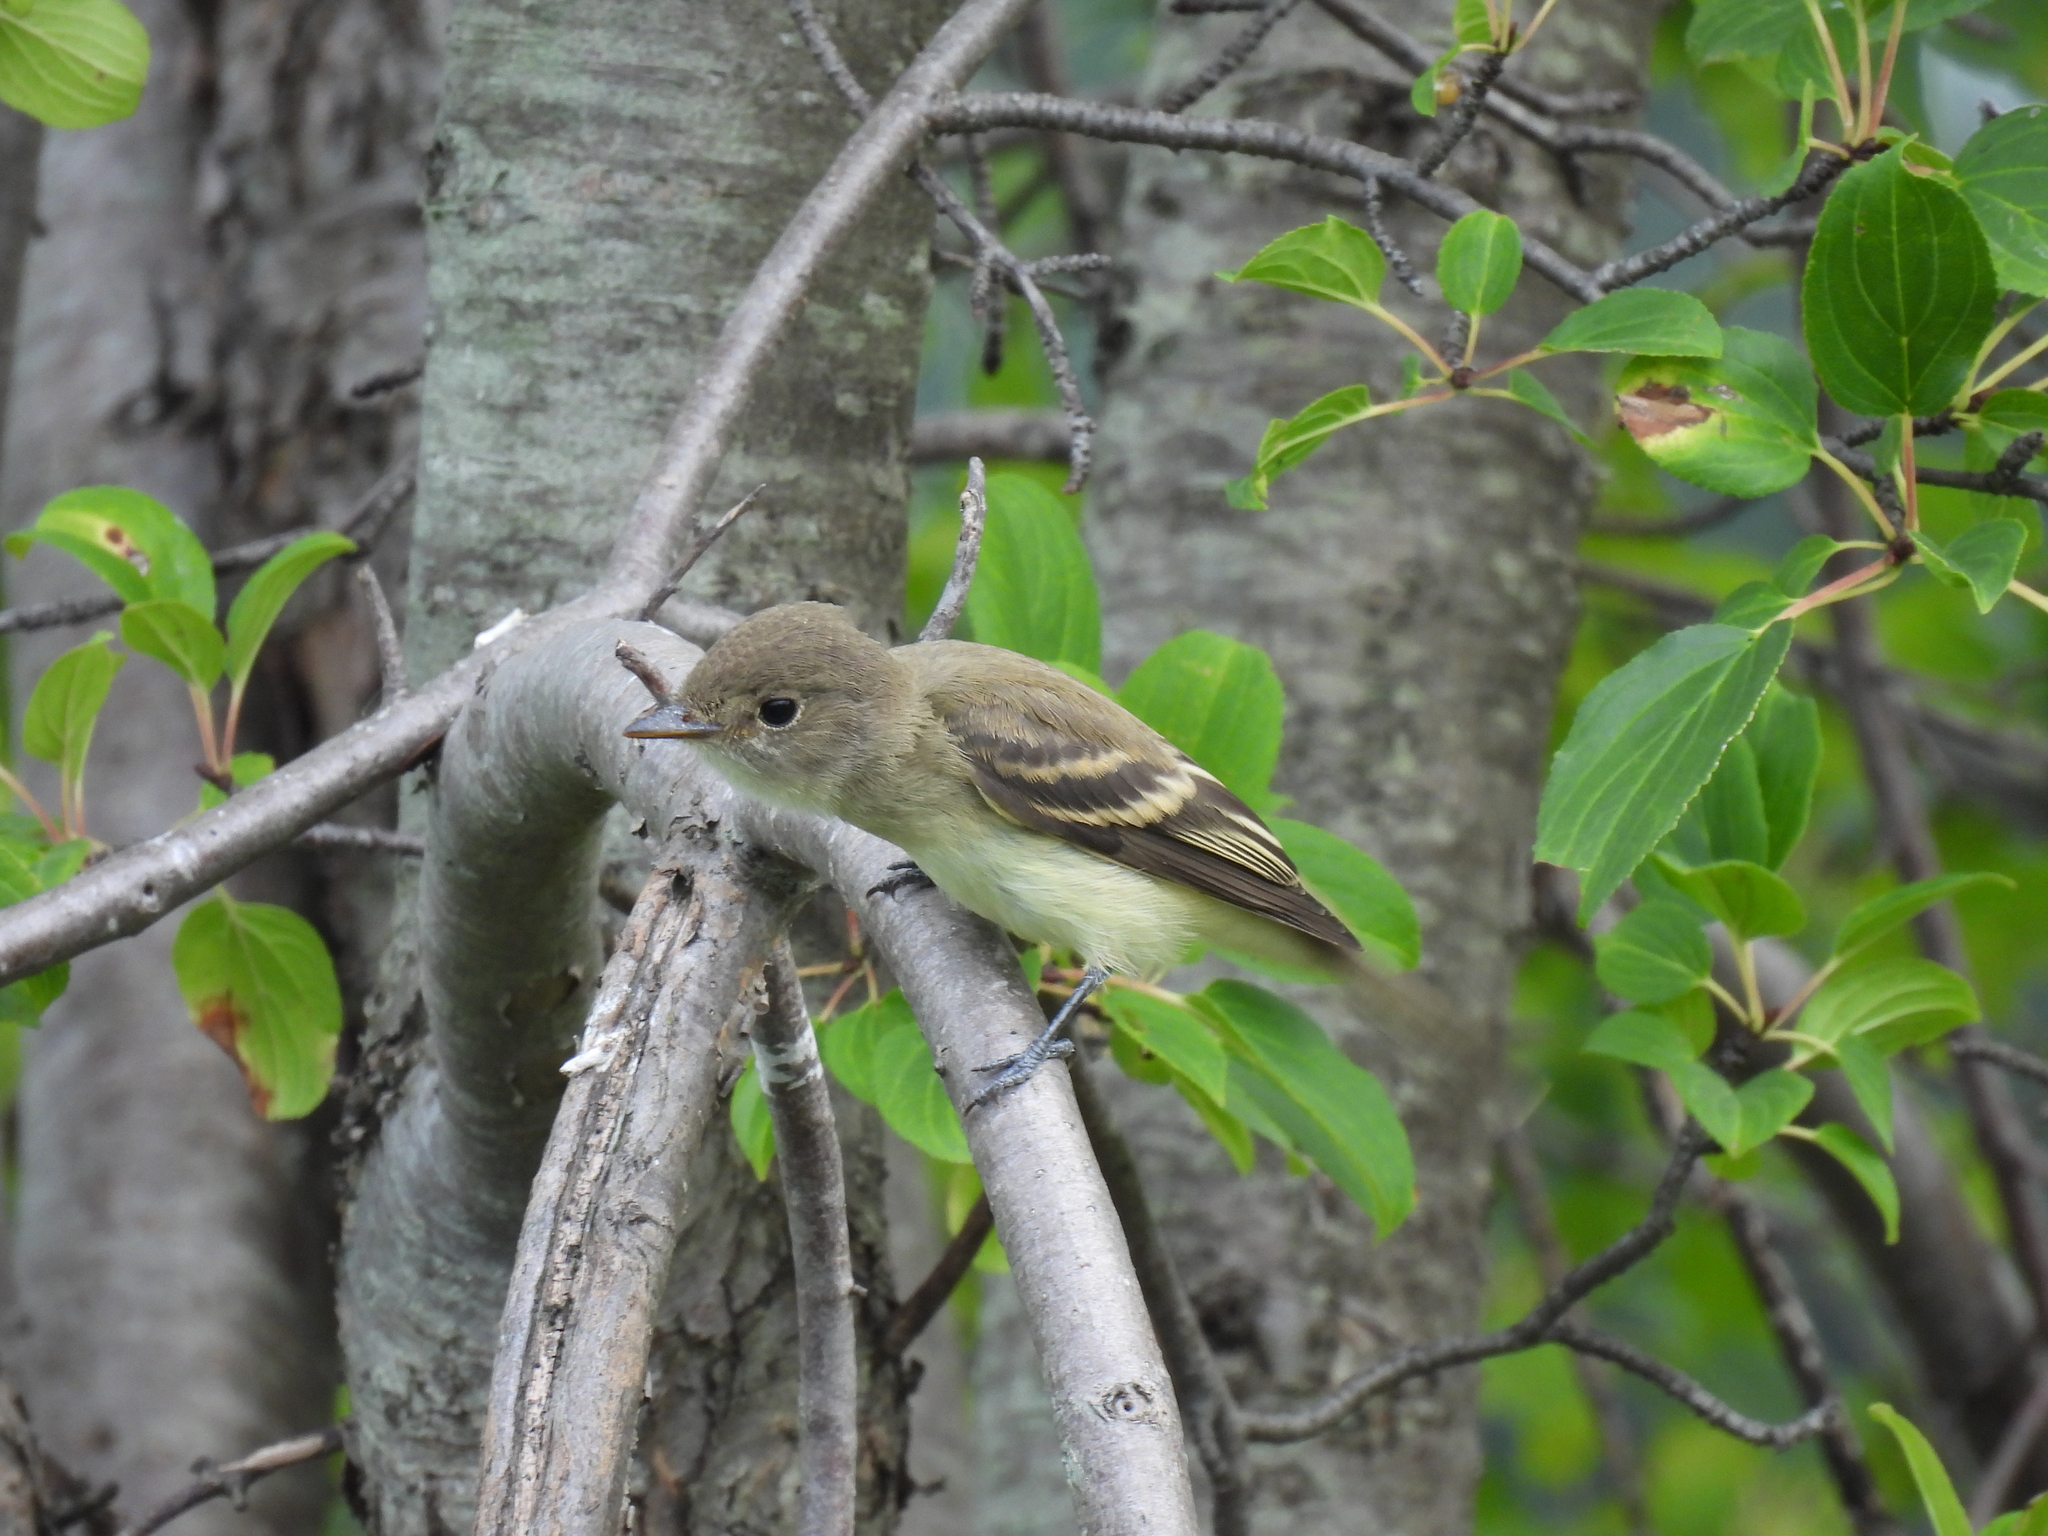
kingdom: Animalia
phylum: Chordata
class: Aves
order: Passeriformes
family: Tyrannidae
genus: Empidonax
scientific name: Empidonax traillii
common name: Willow flycatcher
